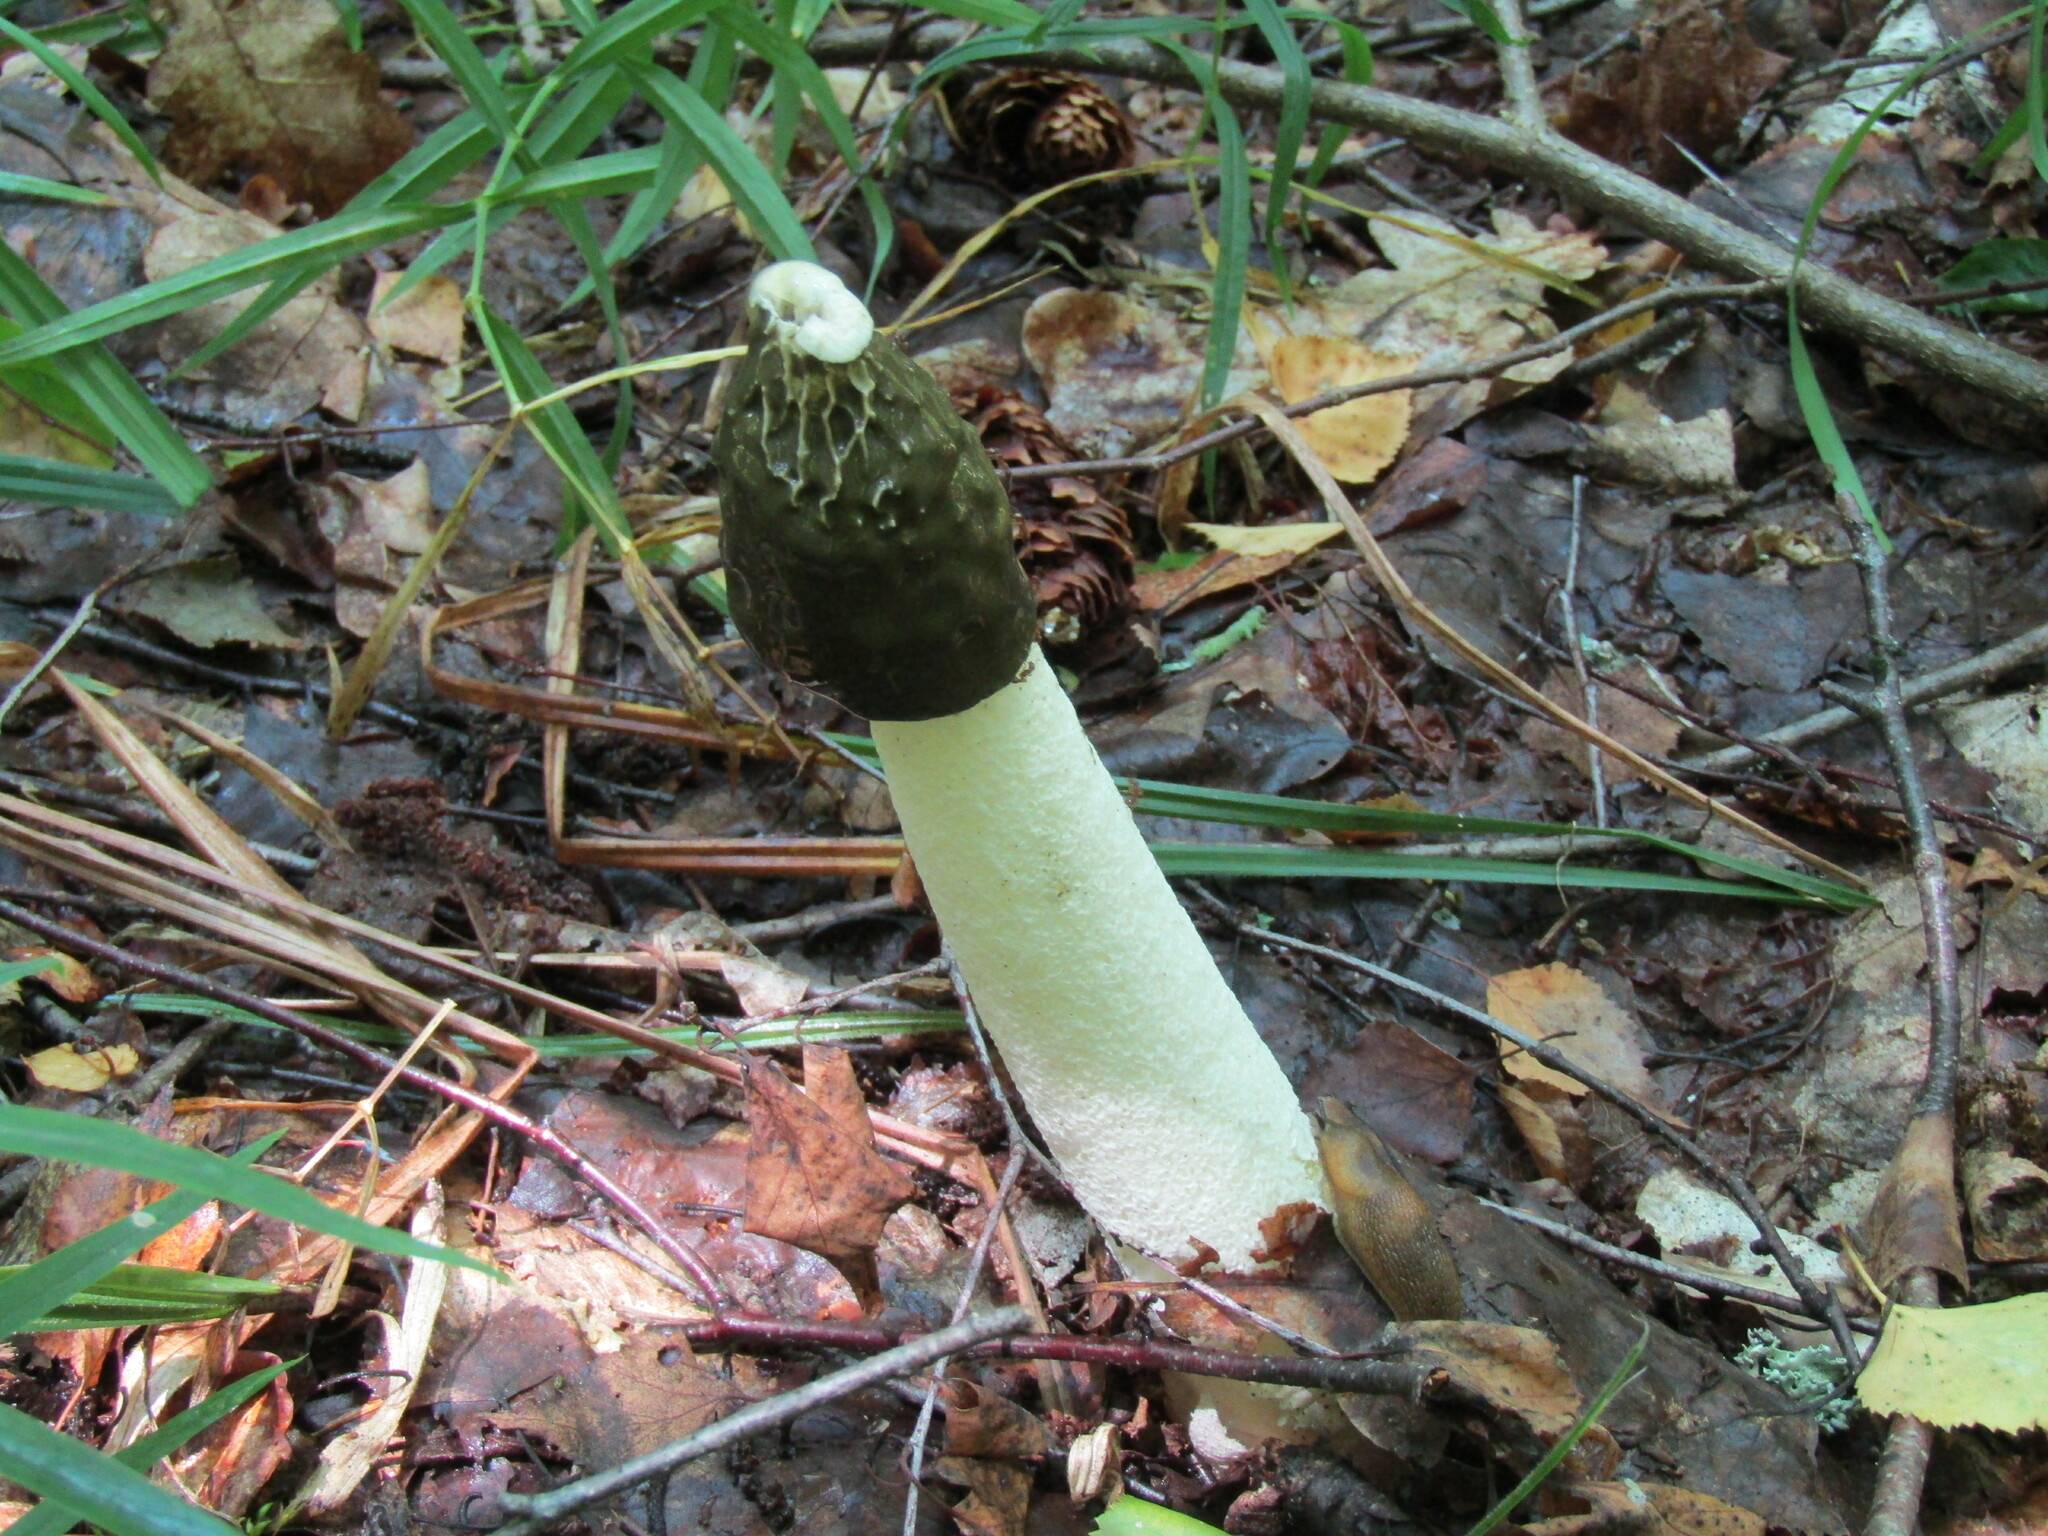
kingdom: Fungi
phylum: Basidiomycota
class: Agaricomycetes
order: Phallales
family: Phallaceae
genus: Phallus
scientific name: Phallus impudicus
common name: Common stinkhorn
